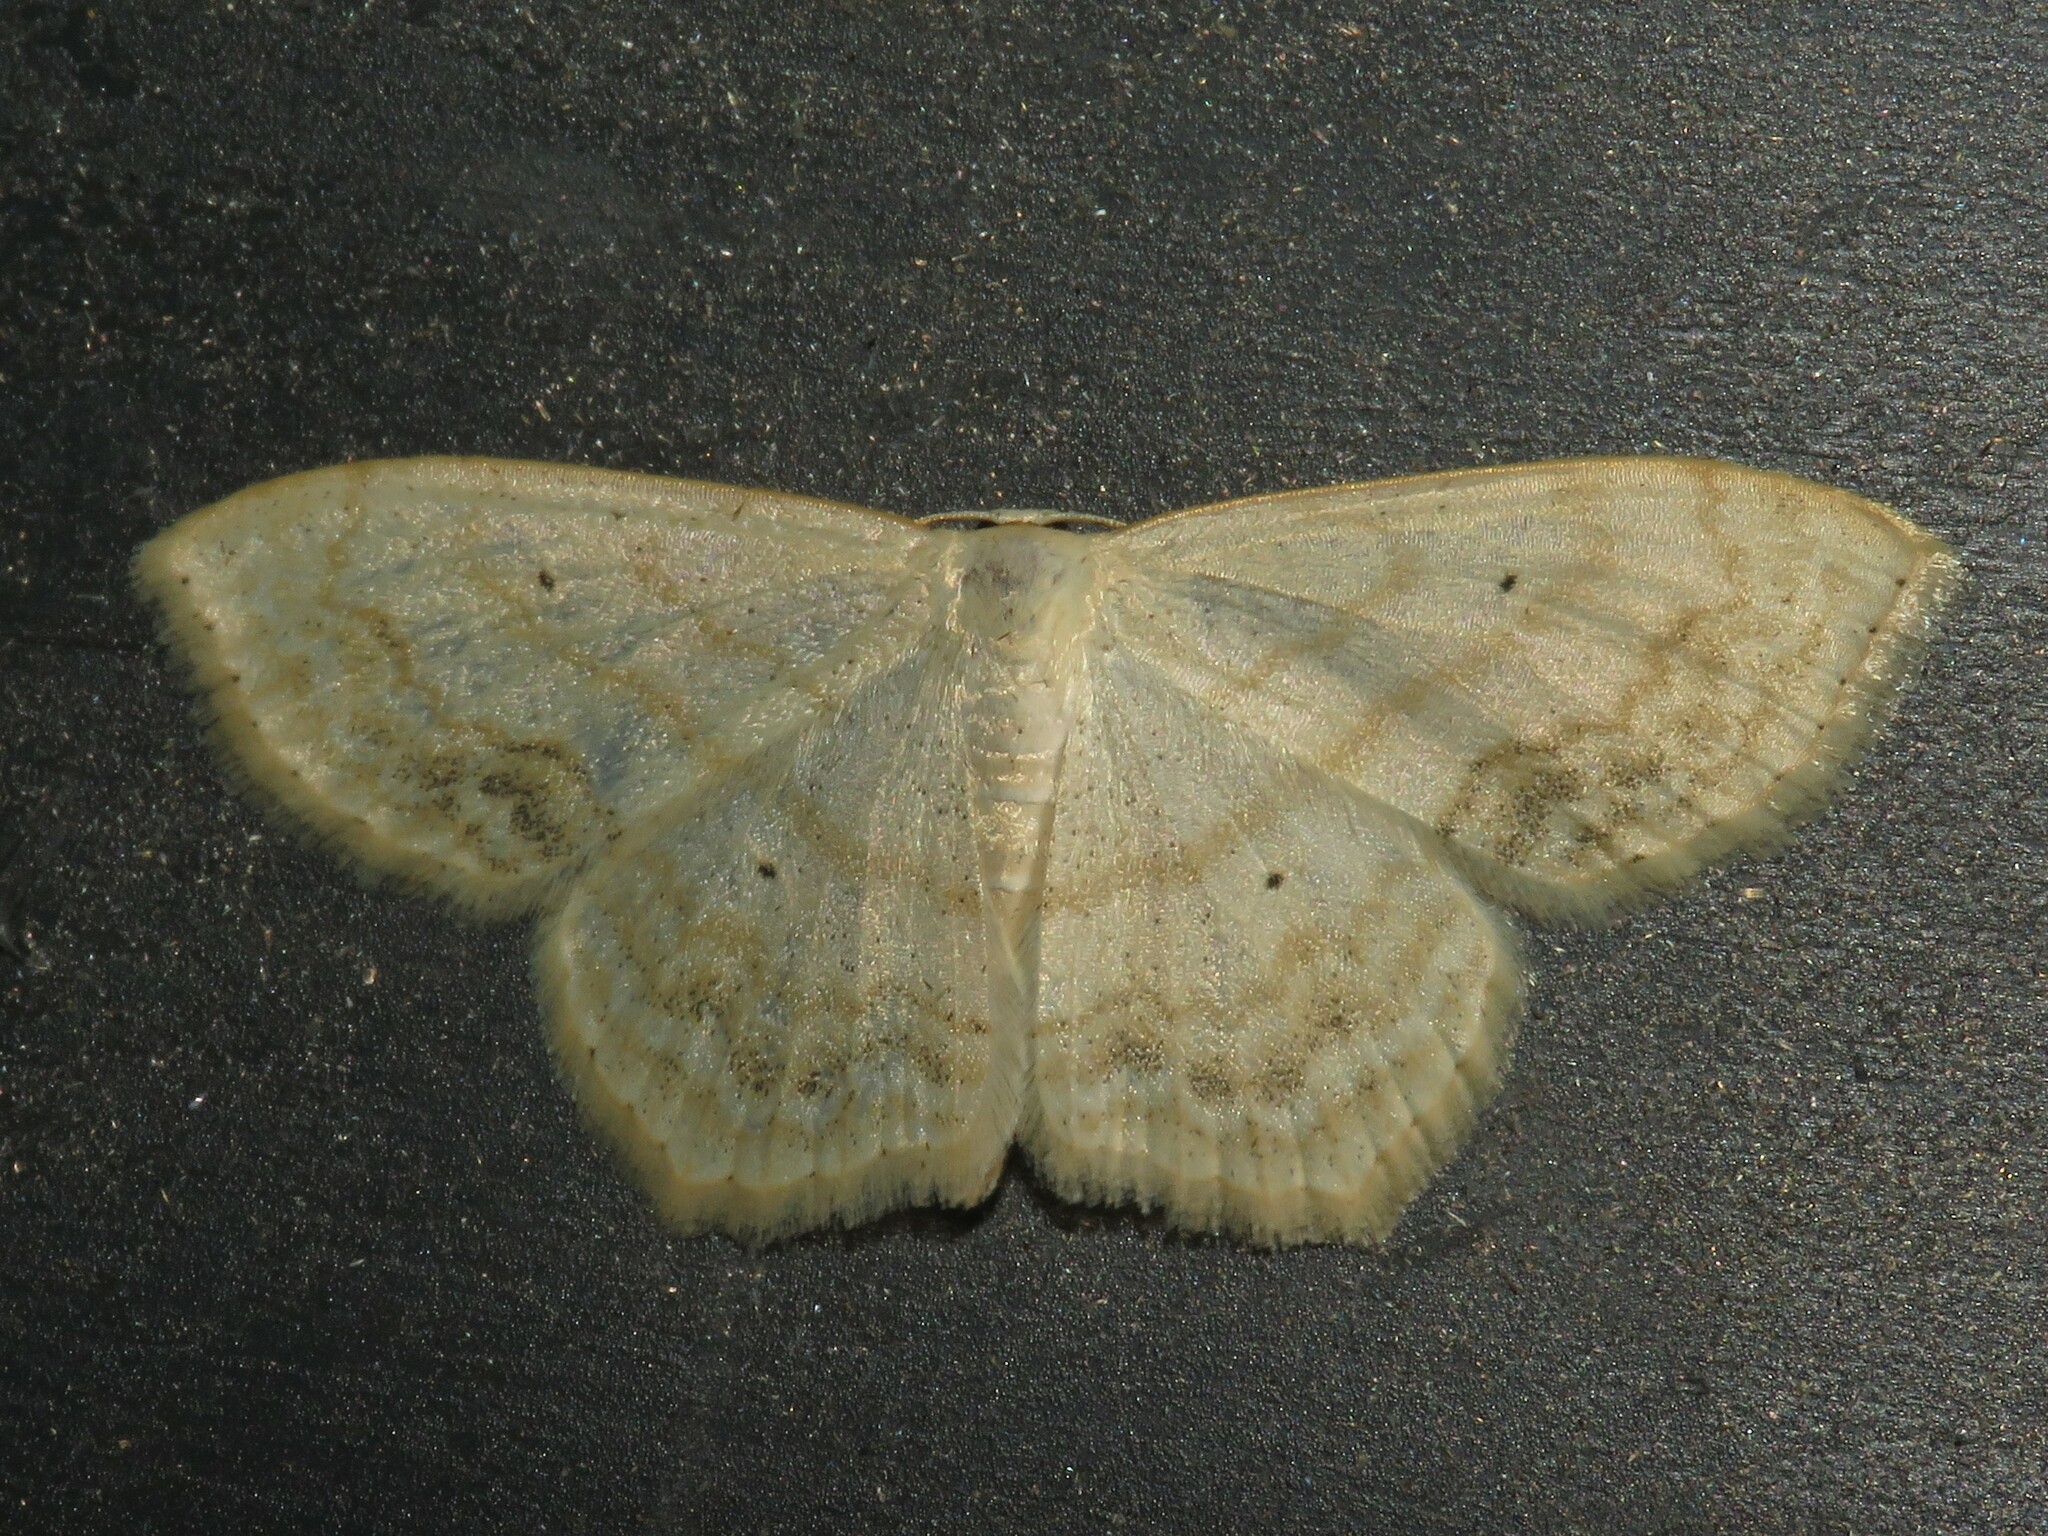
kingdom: Animalia
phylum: Arthropoda
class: Insecta
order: Lepidoptera
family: Geometridae
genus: Scopula
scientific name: Scopula limboundata
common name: Large lace border
